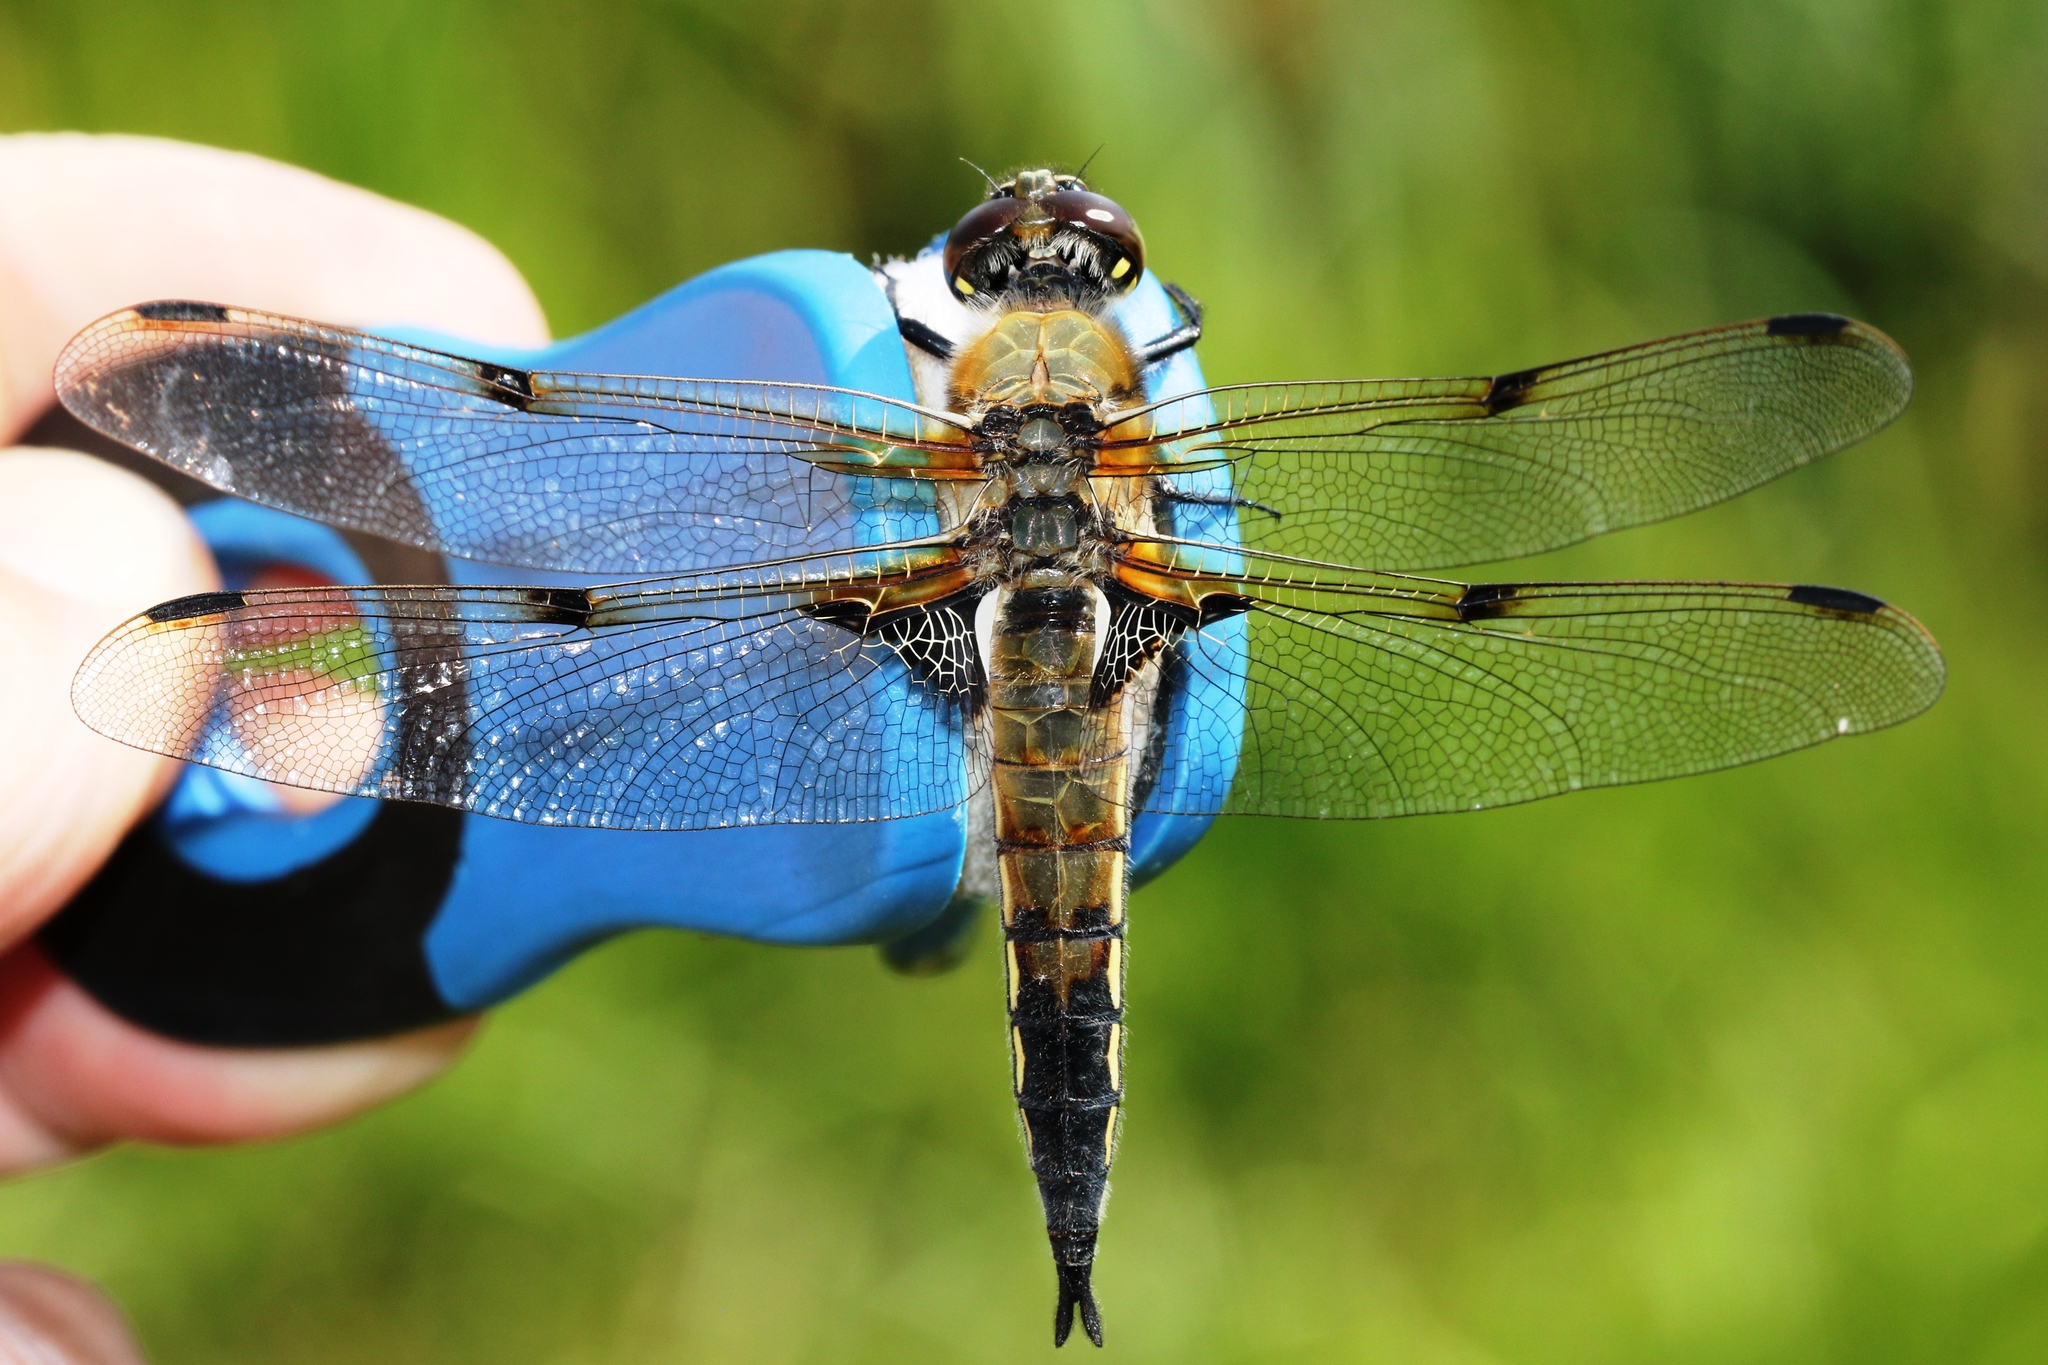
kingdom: Animalia
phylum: Arthropoda
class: Insecta
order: Odonata
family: Libellulidae
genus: Libellula
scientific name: Libellula quadrimaculata
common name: Four-spotted chaser
